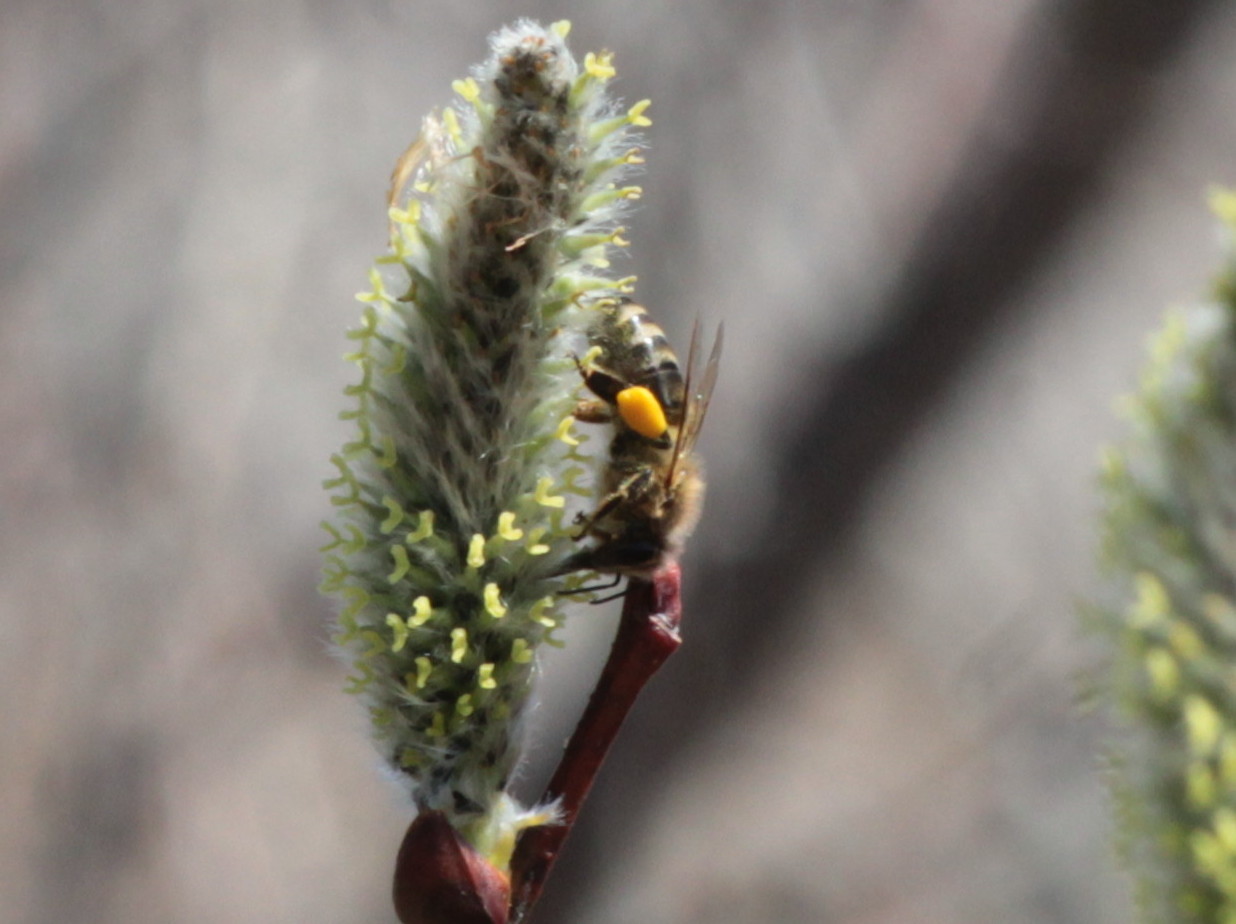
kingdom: Animalia
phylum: Arthropoda
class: Insecta
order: Hymenoptera
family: Apidae
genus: Apis
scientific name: Apis mellifera
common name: Honey bee
